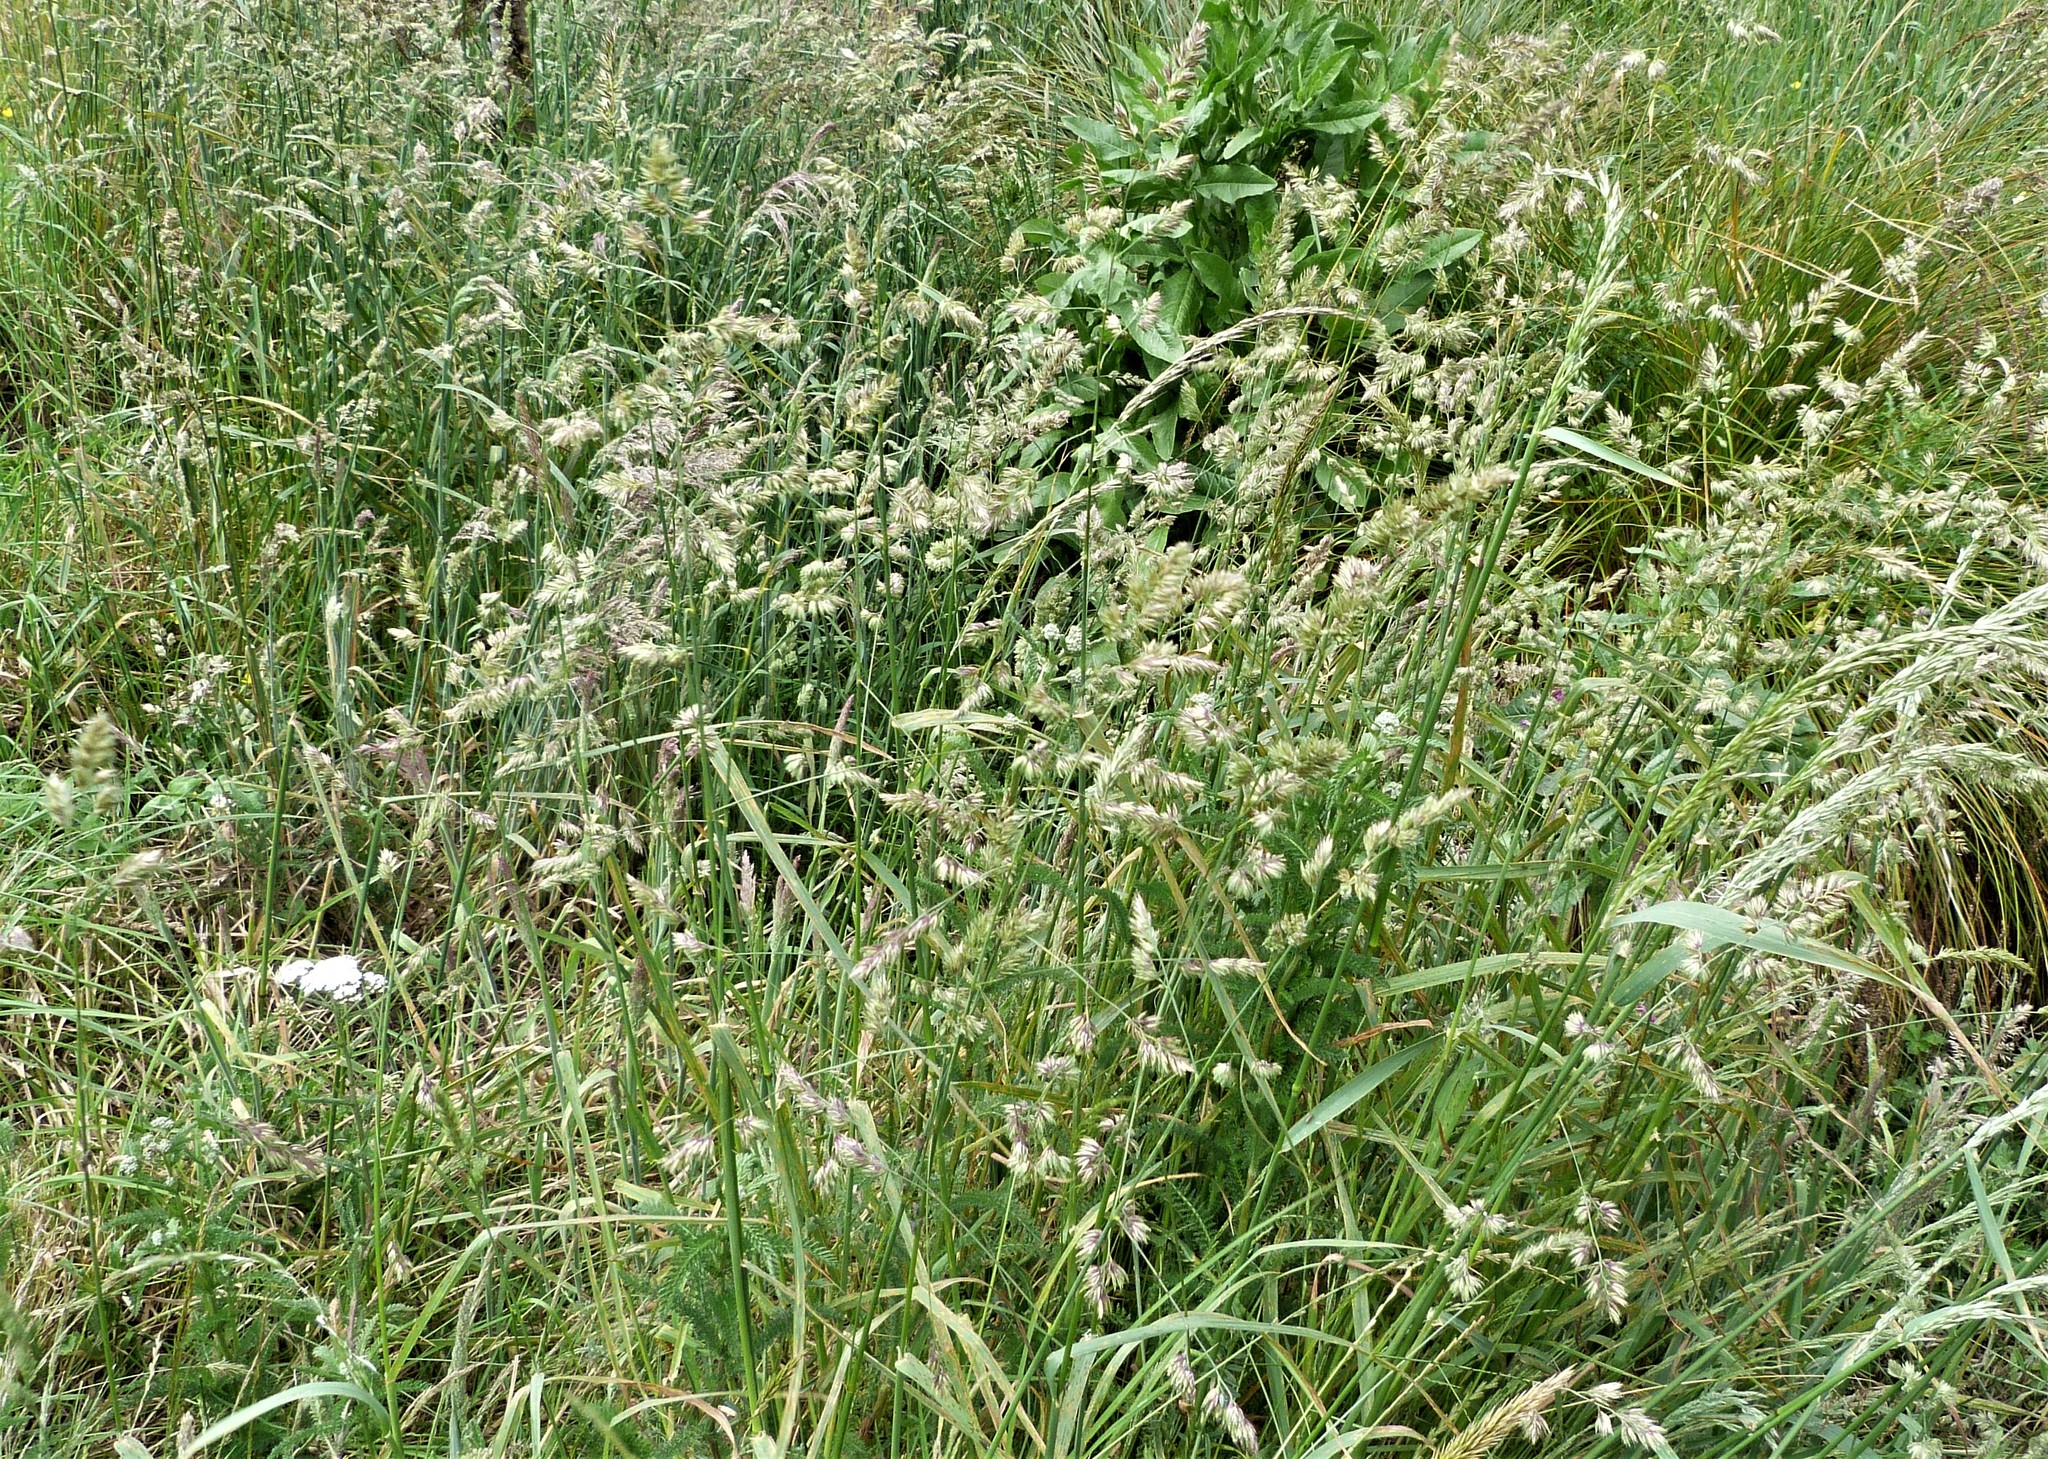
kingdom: Plantae
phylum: Tracheophyta
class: Liliopsida
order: Poales
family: Poaceae
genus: Dactylis
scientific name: Dactylis glomerata
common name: Orchardgrass
